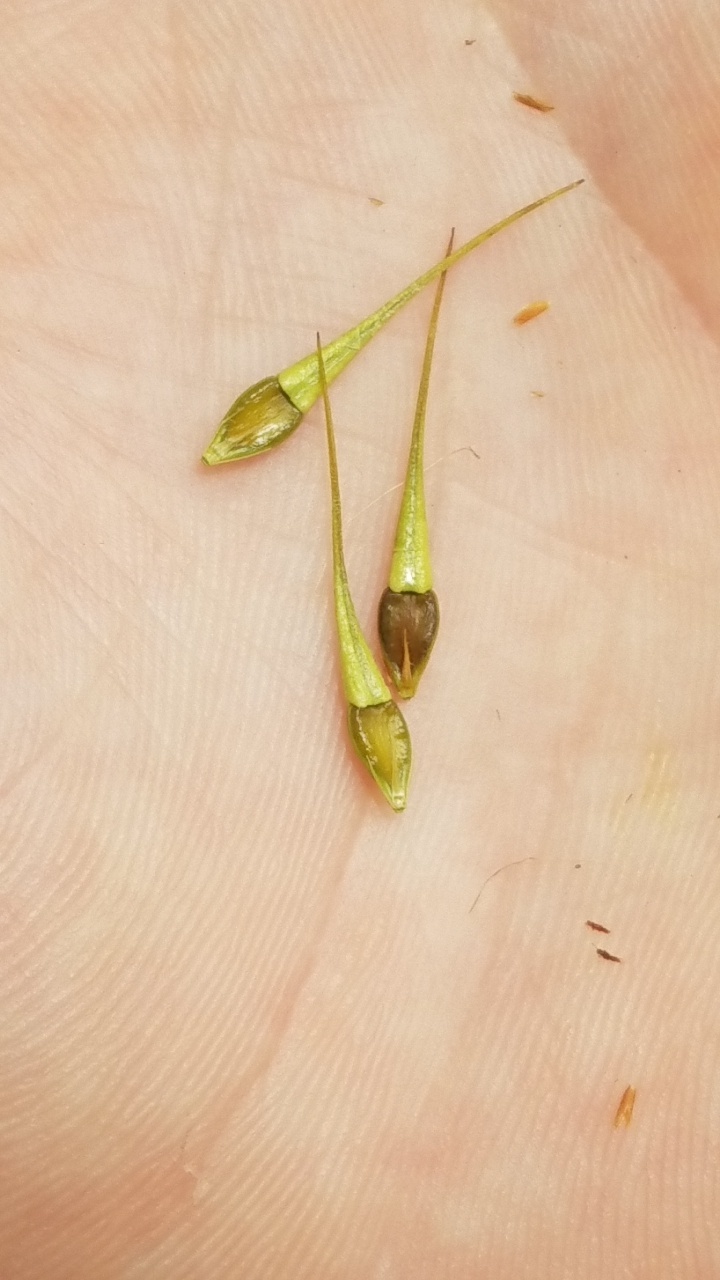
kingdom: Plantae
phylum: Tracheophyta
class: Liliopsida
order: Poales
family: Cyperaceae
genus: Rhynchospora
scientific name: Rhynchospora corniculata
